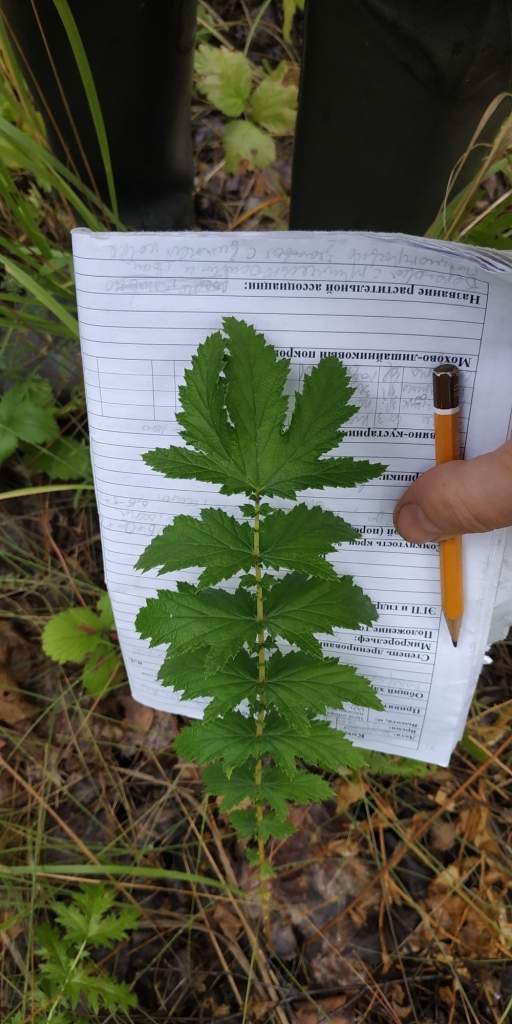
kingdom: Plantae
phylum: Tracheophyta
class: Magnoliopsida
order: Rosales
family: Rosaceae
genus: Filipendula
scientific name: Filipendula ulmaria
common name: Meadowsweet
